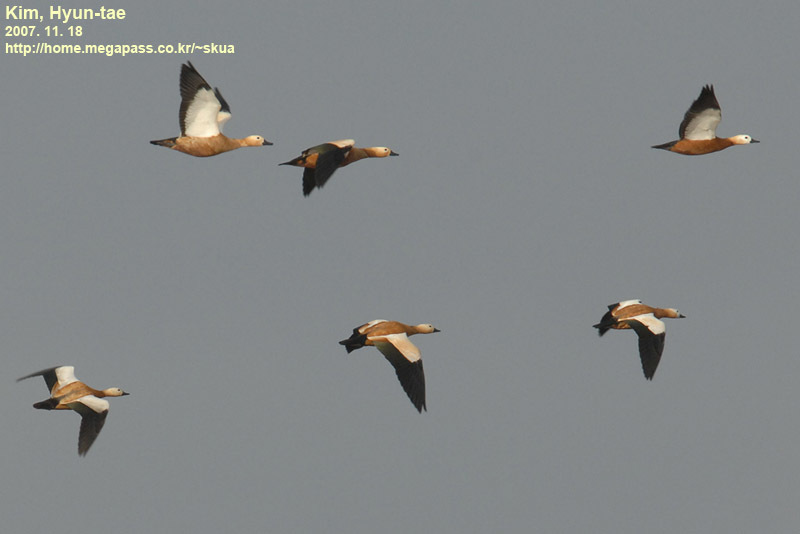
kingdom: Animalia
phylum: Chordata
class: Aves
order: Anseriformes
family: Anatidae
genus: Tadorna
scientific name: Tadorna ferruginea
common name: Ruddy shelduck
